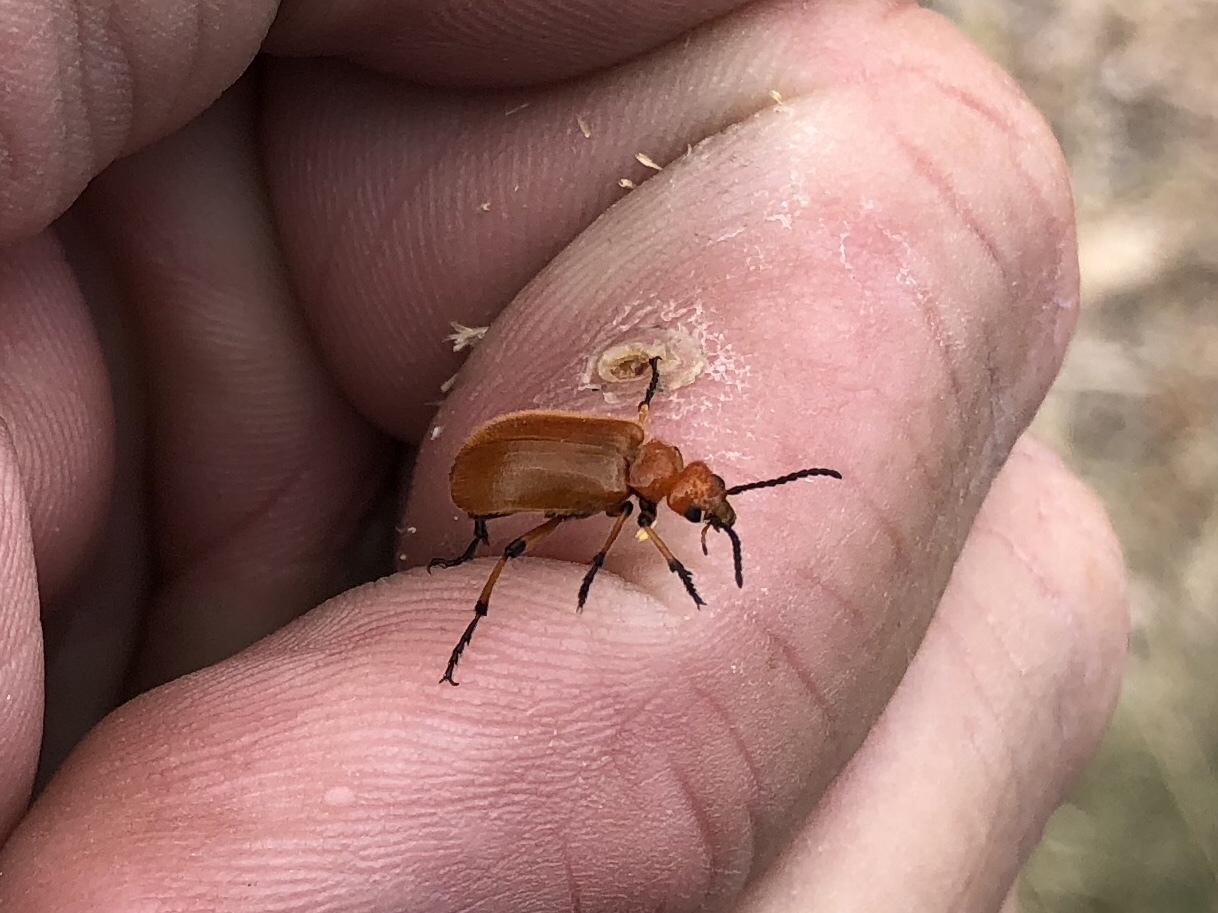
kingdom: Animalia
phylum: Arthropoda
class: Insecta
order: Coleoptera
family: Meloidae
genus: Tetraonyx
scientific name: Tetraonyx fulva
